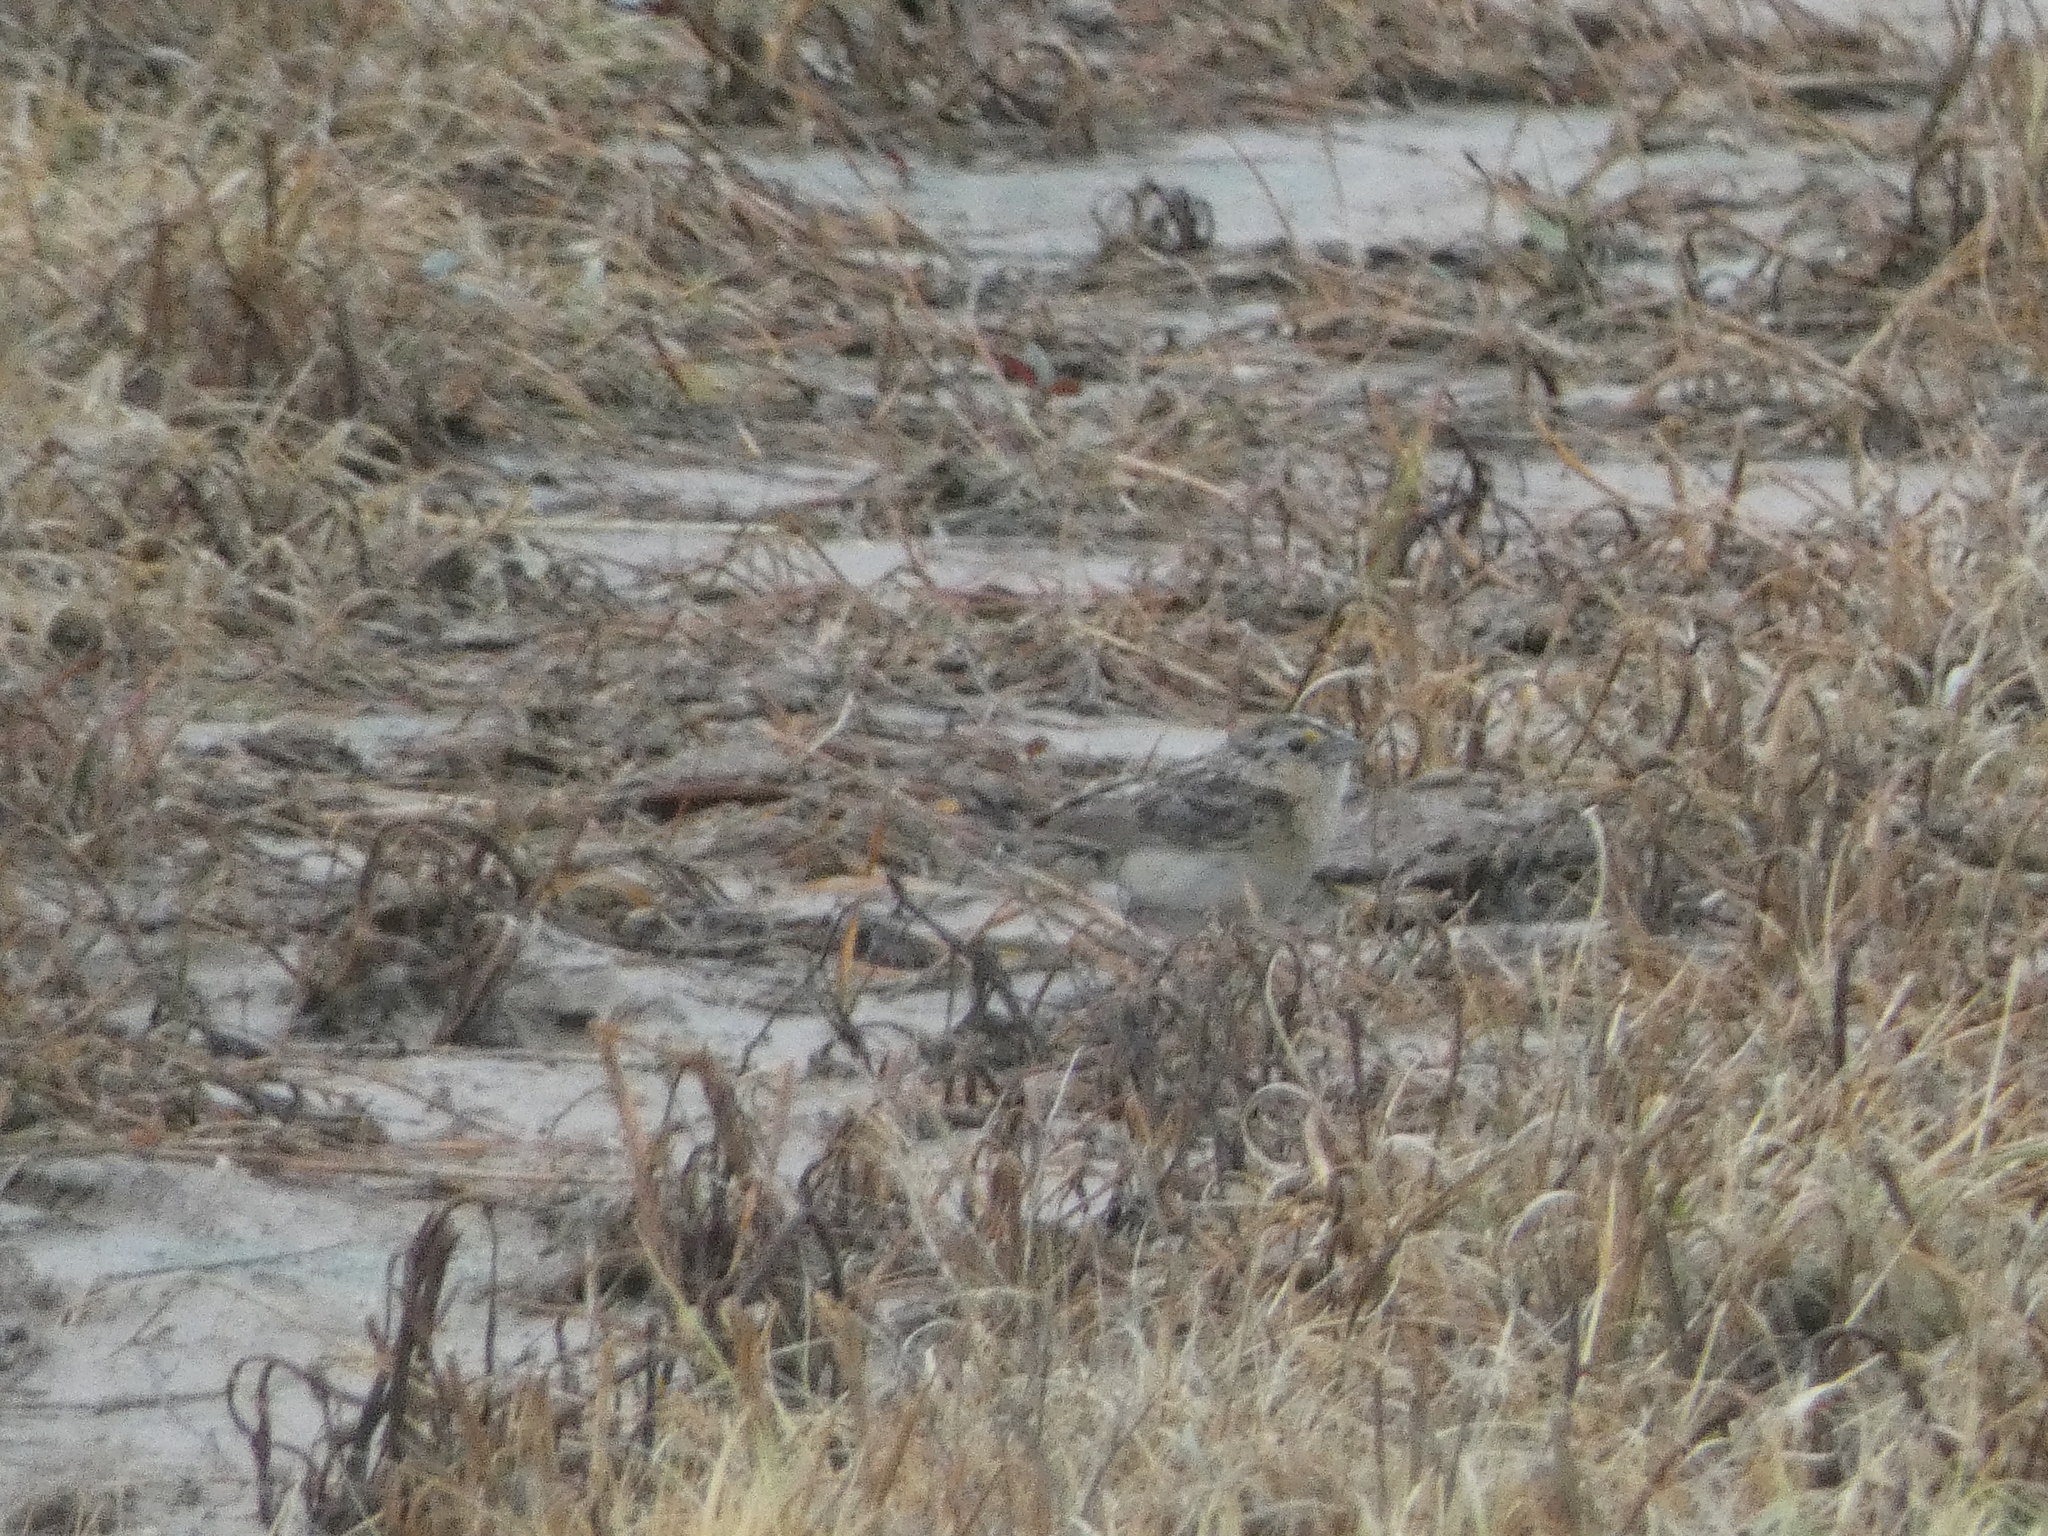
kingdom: Animalia
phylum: Chordata
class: Aves
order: Passeriformes
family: Passerellidae
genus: Ammodramus
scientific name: Ammodramus savannarum
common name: Grasshopper sparrow
